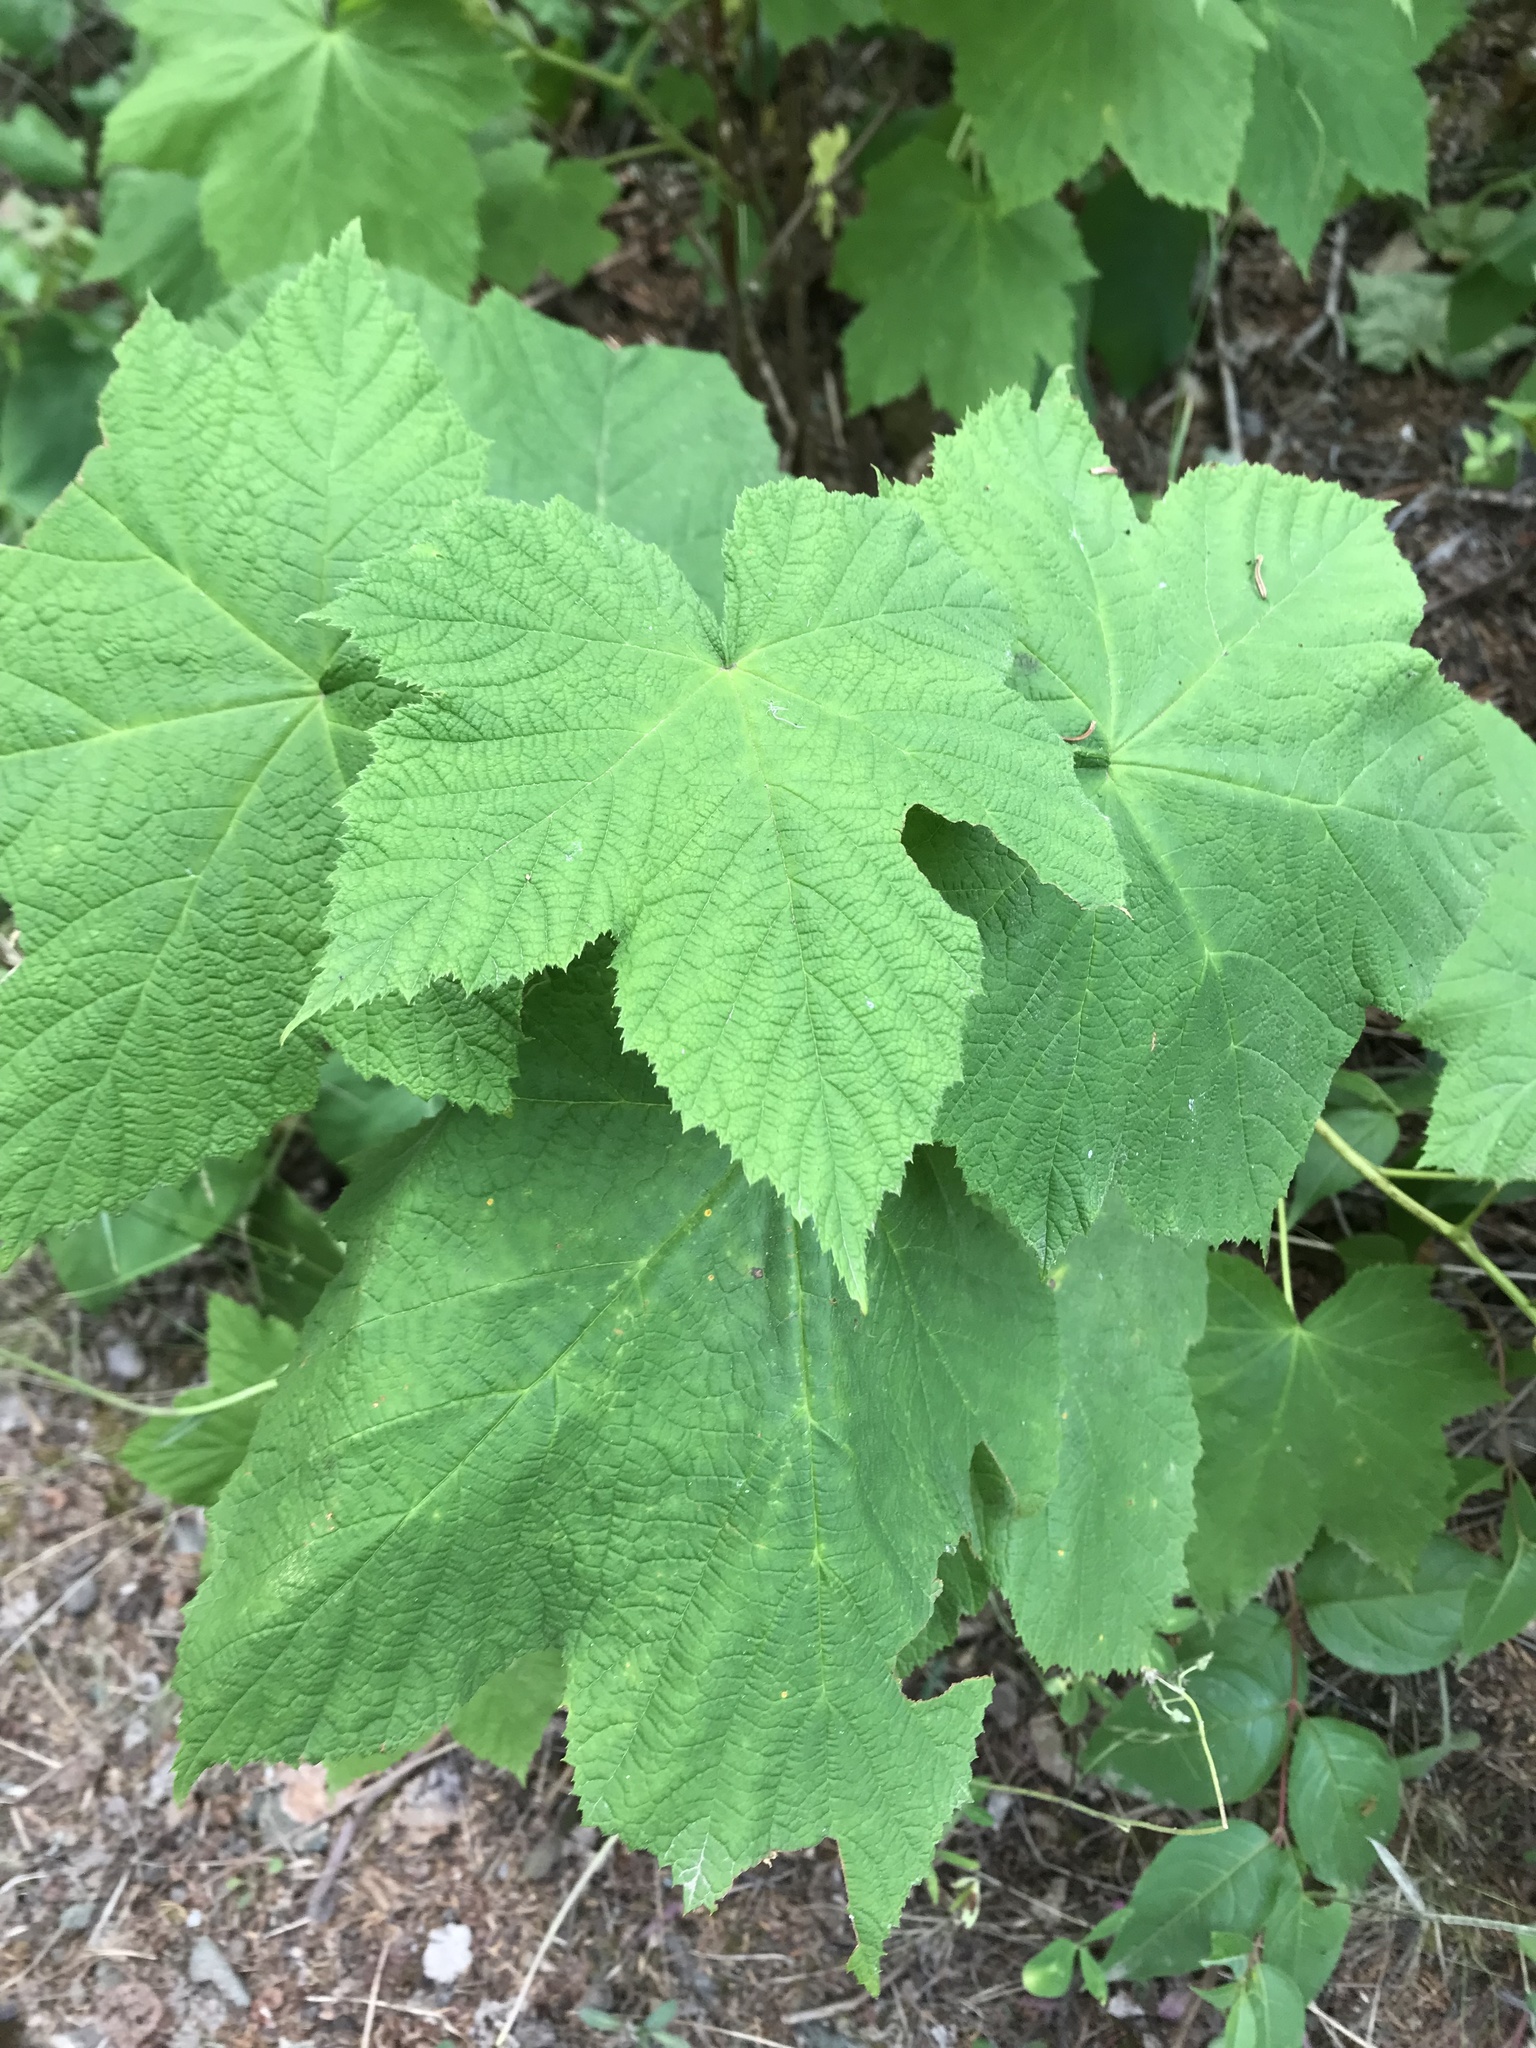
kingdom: Plantae
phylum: Tracheophyta
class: Magnoliopsida
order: Rosales
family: Rosaceae
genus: Rubus
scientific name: Rubus parviflorus
